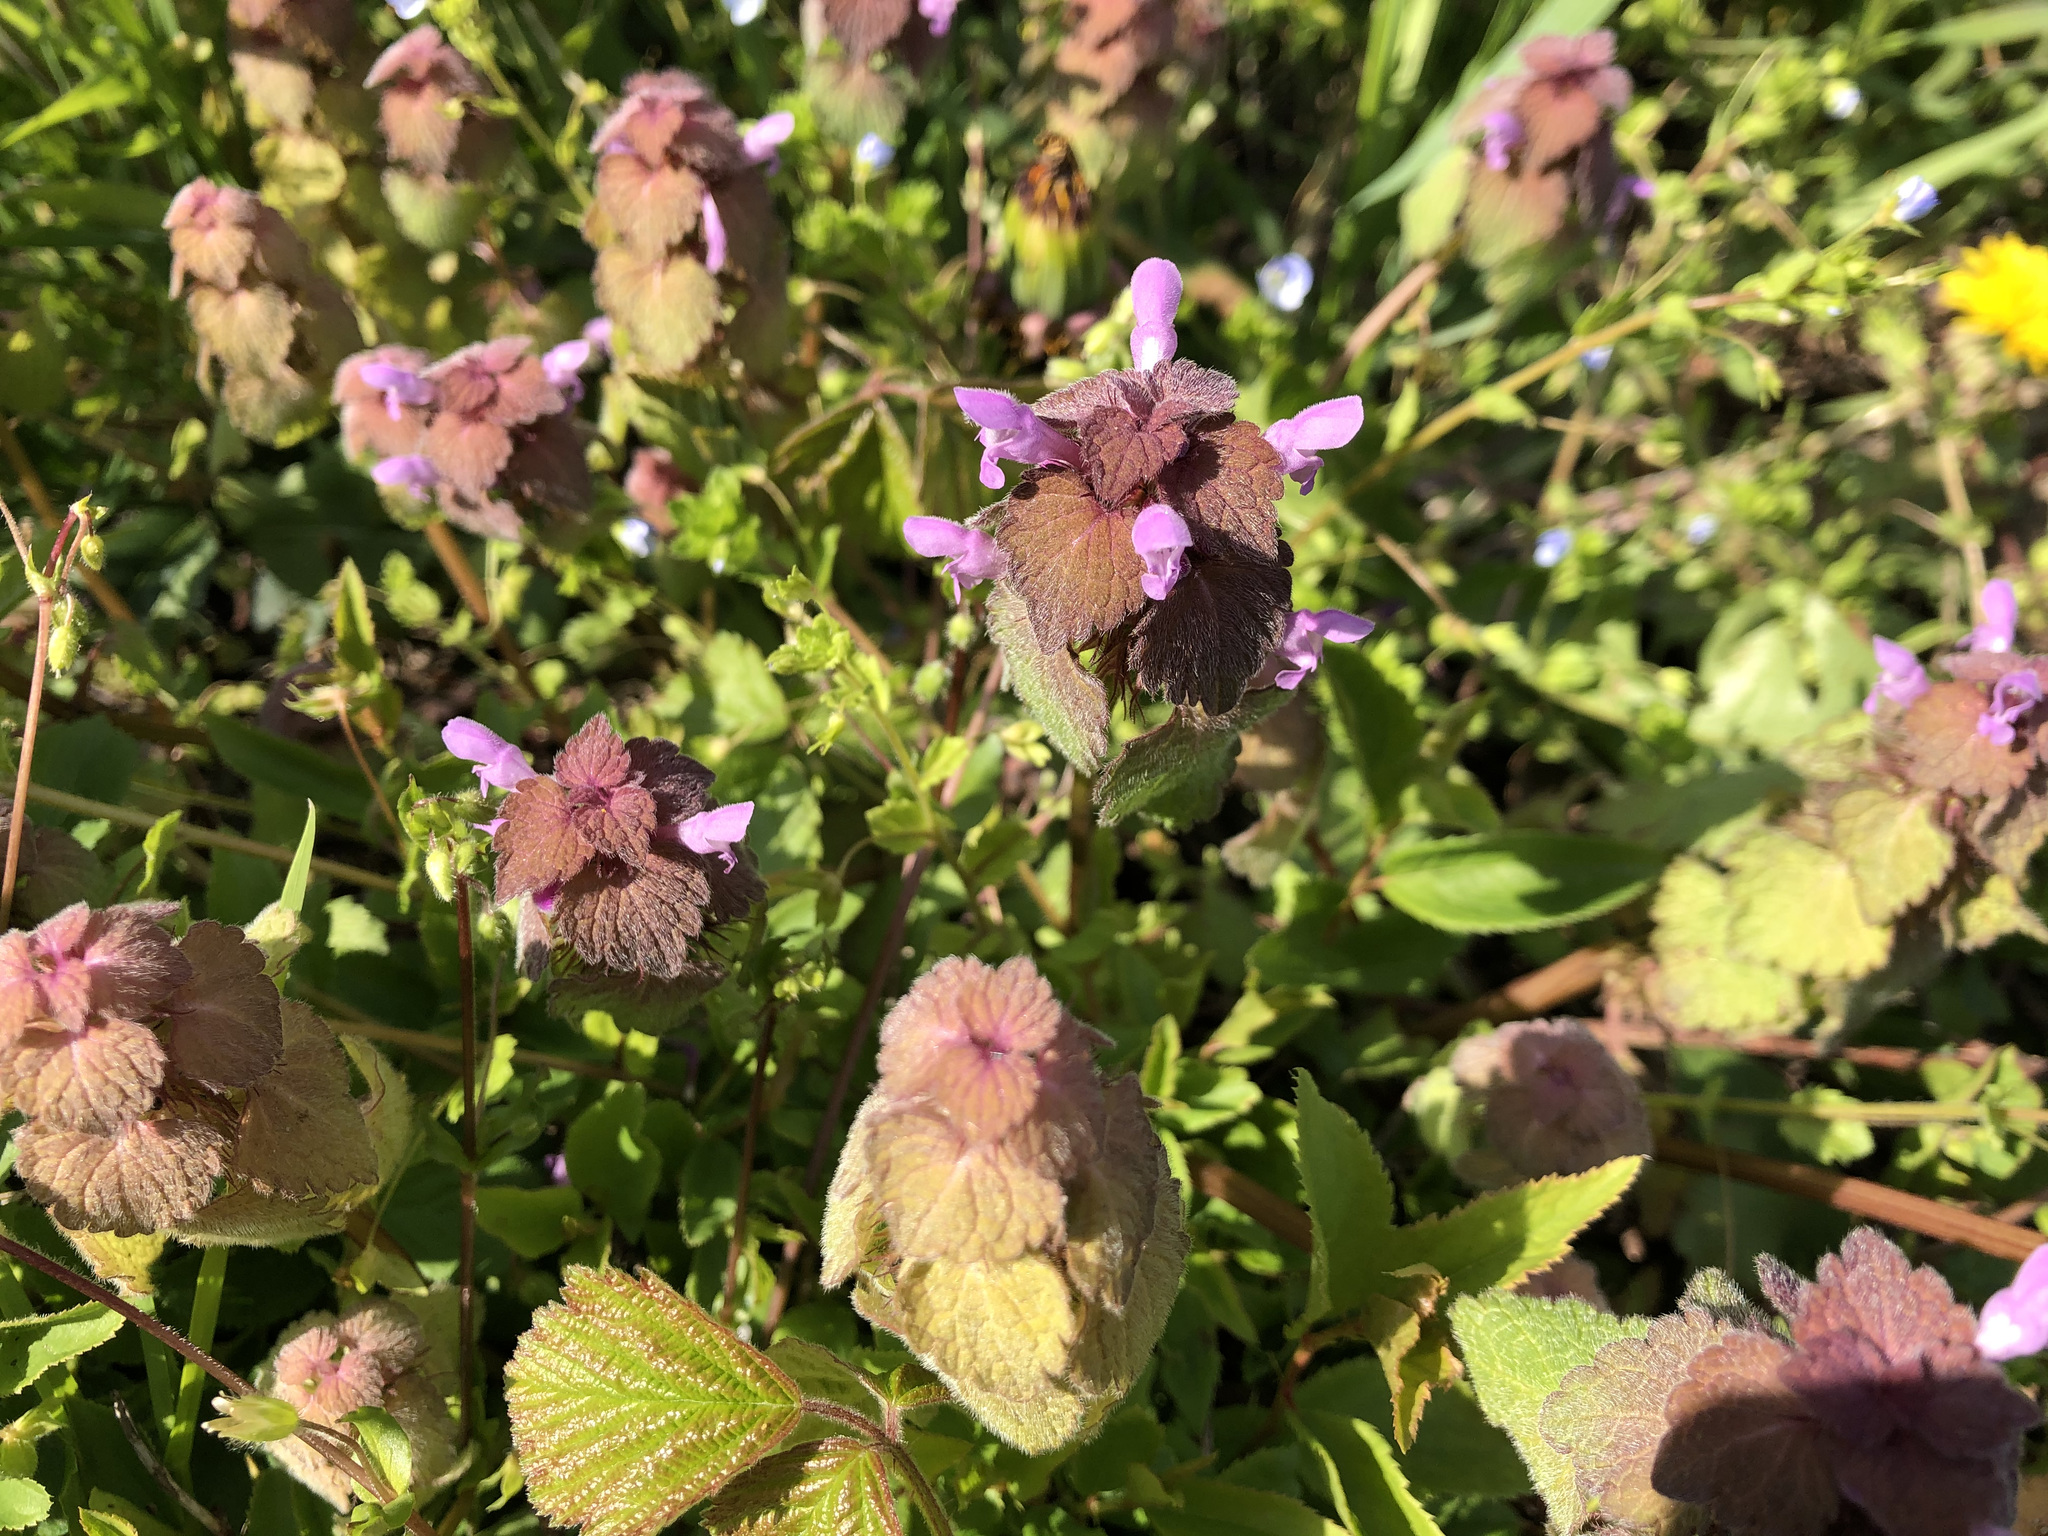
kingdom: Plantae
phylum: Tracheophyta
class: Magnoliopsida
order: Lamiales
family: Lamiaceae
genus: Lamium
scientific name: Lamium purpureum
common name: Red dead-nettle
